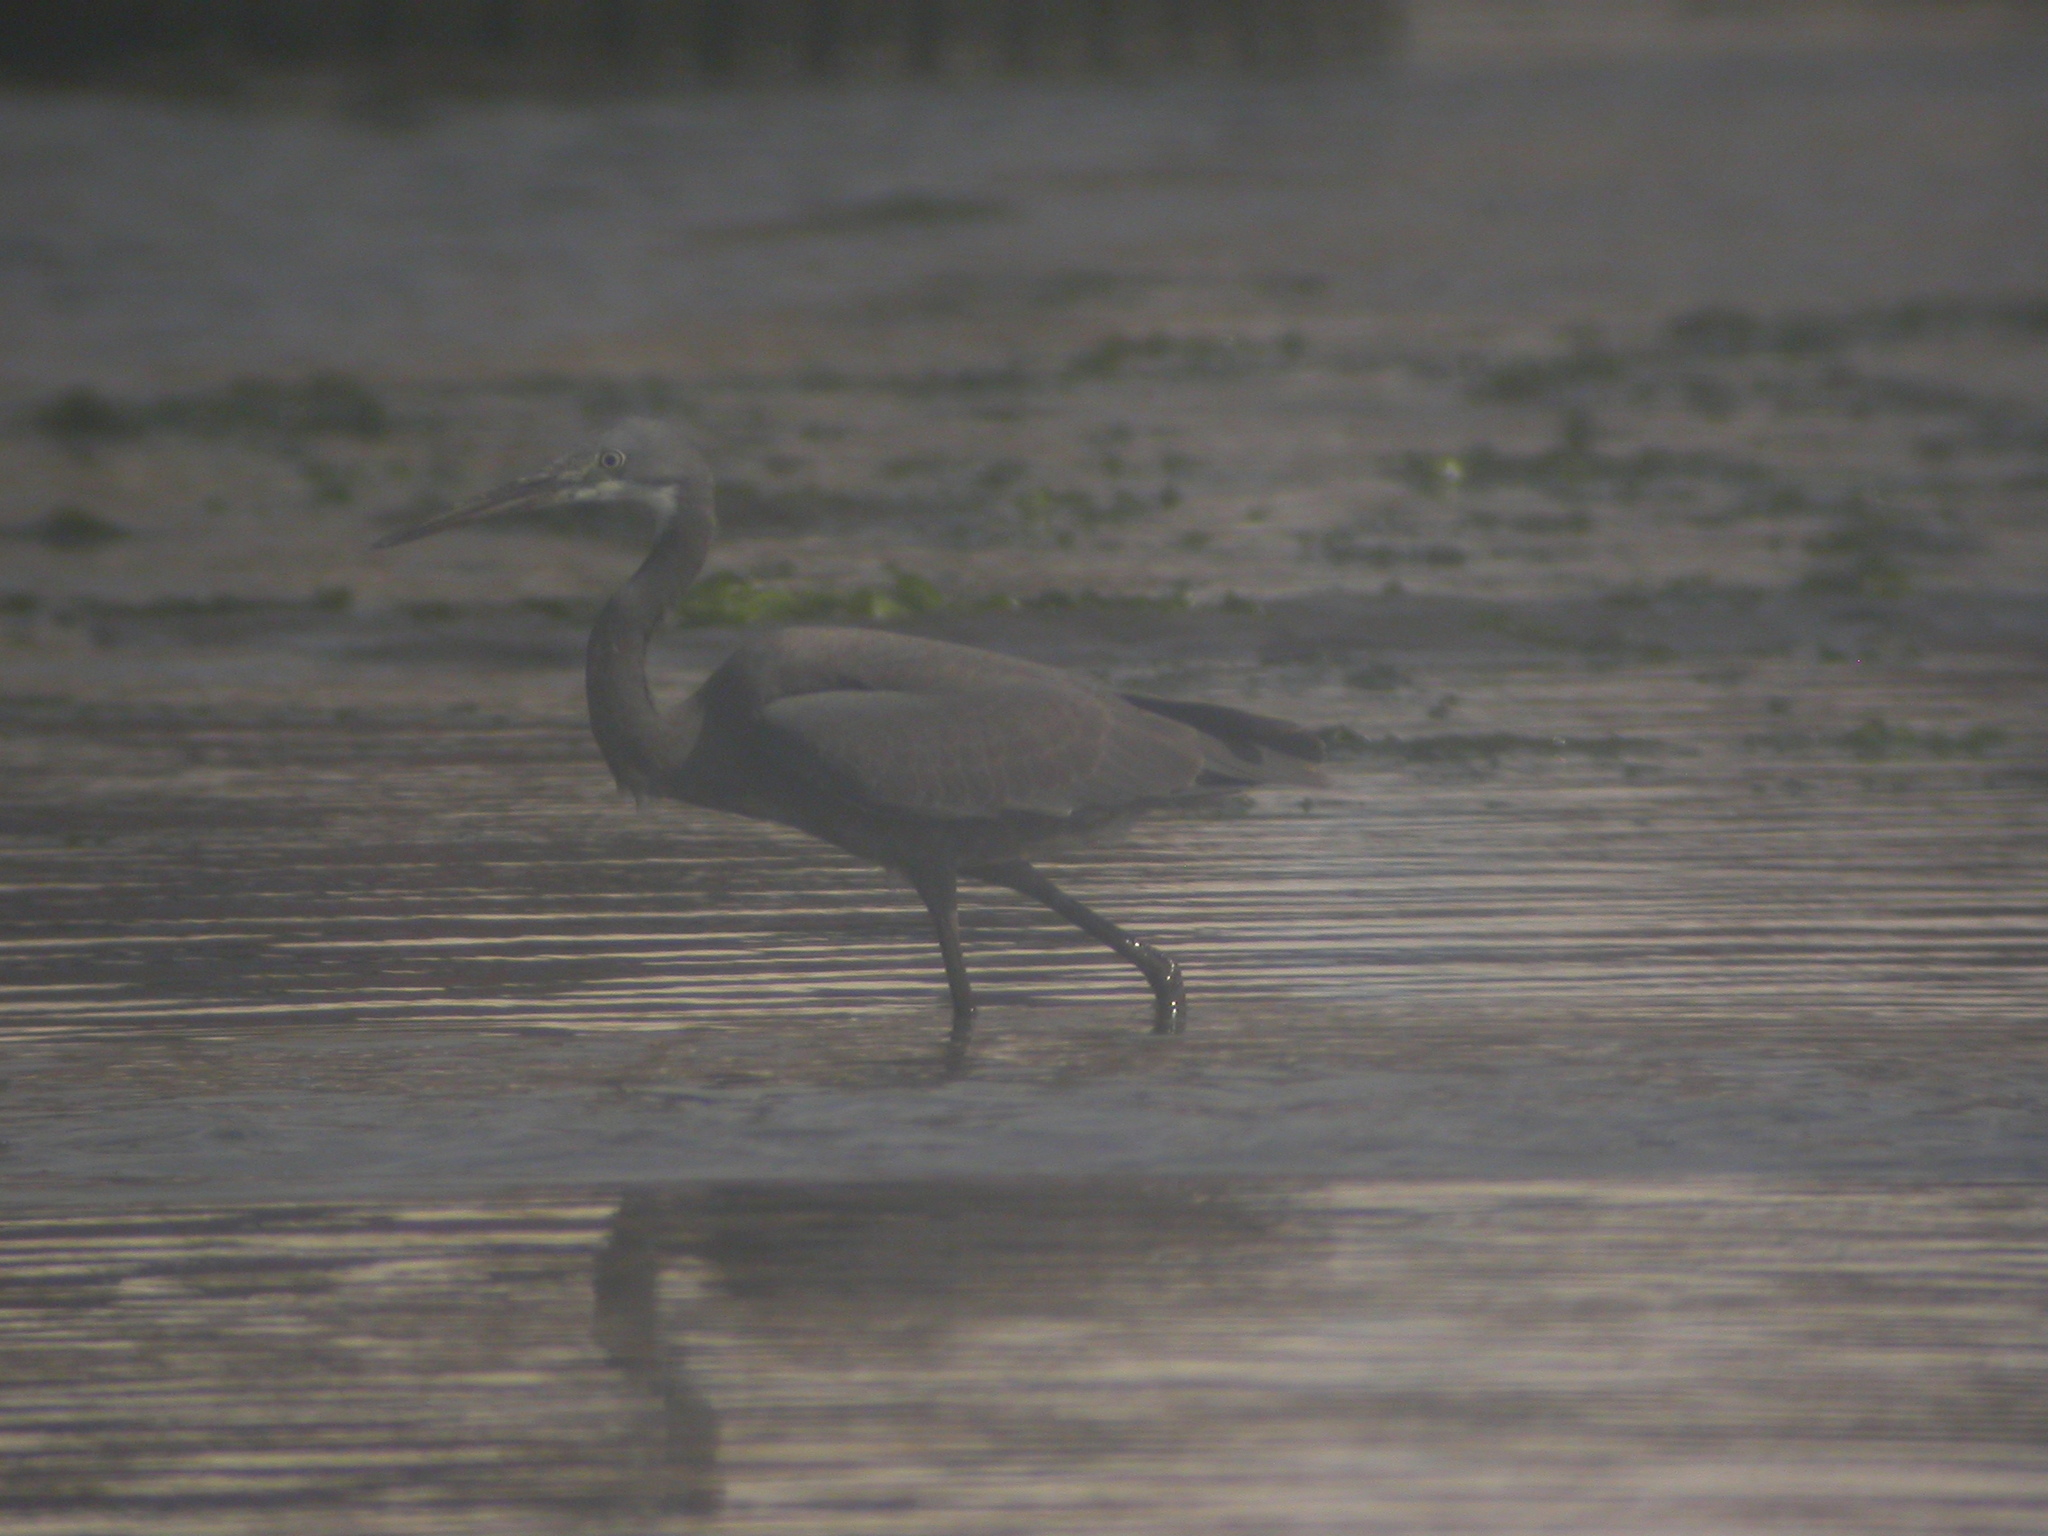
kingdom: Animalia
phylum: Chordata
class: Aves
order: Pelecaniformes
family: Ardeidae
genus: Egretta
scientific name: Egretta gularis
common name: Western reef-heron
